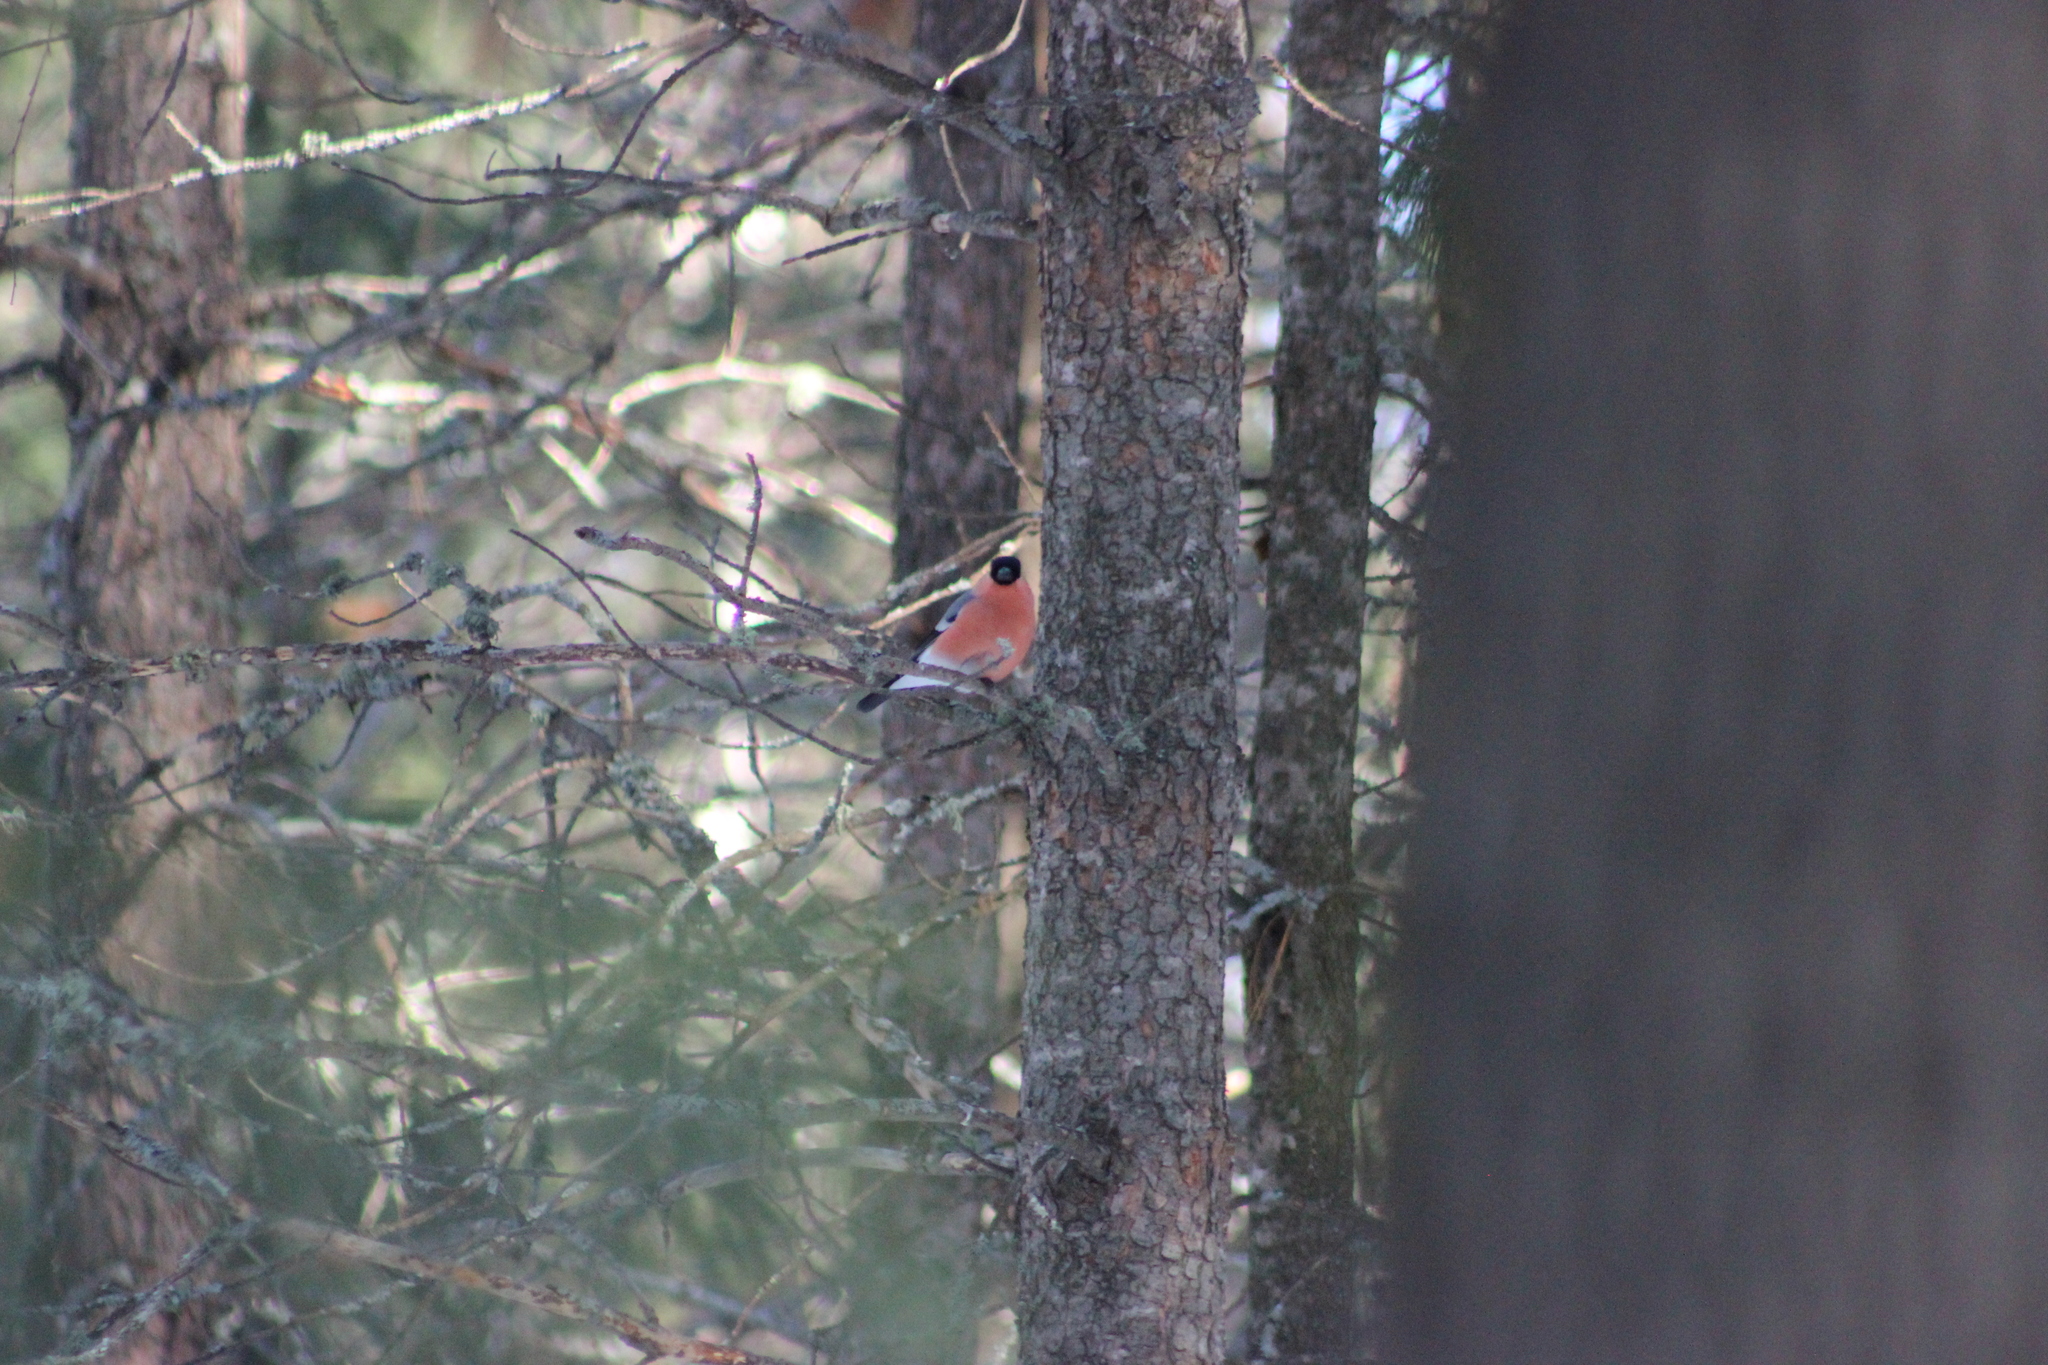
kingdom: Animalia
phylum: Chordata
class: Aves
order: Passeriformes
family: Fringillidae
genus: Pyrrhula
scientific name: Pyrrhula pyrrhula
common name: Eurasian bullfinch
